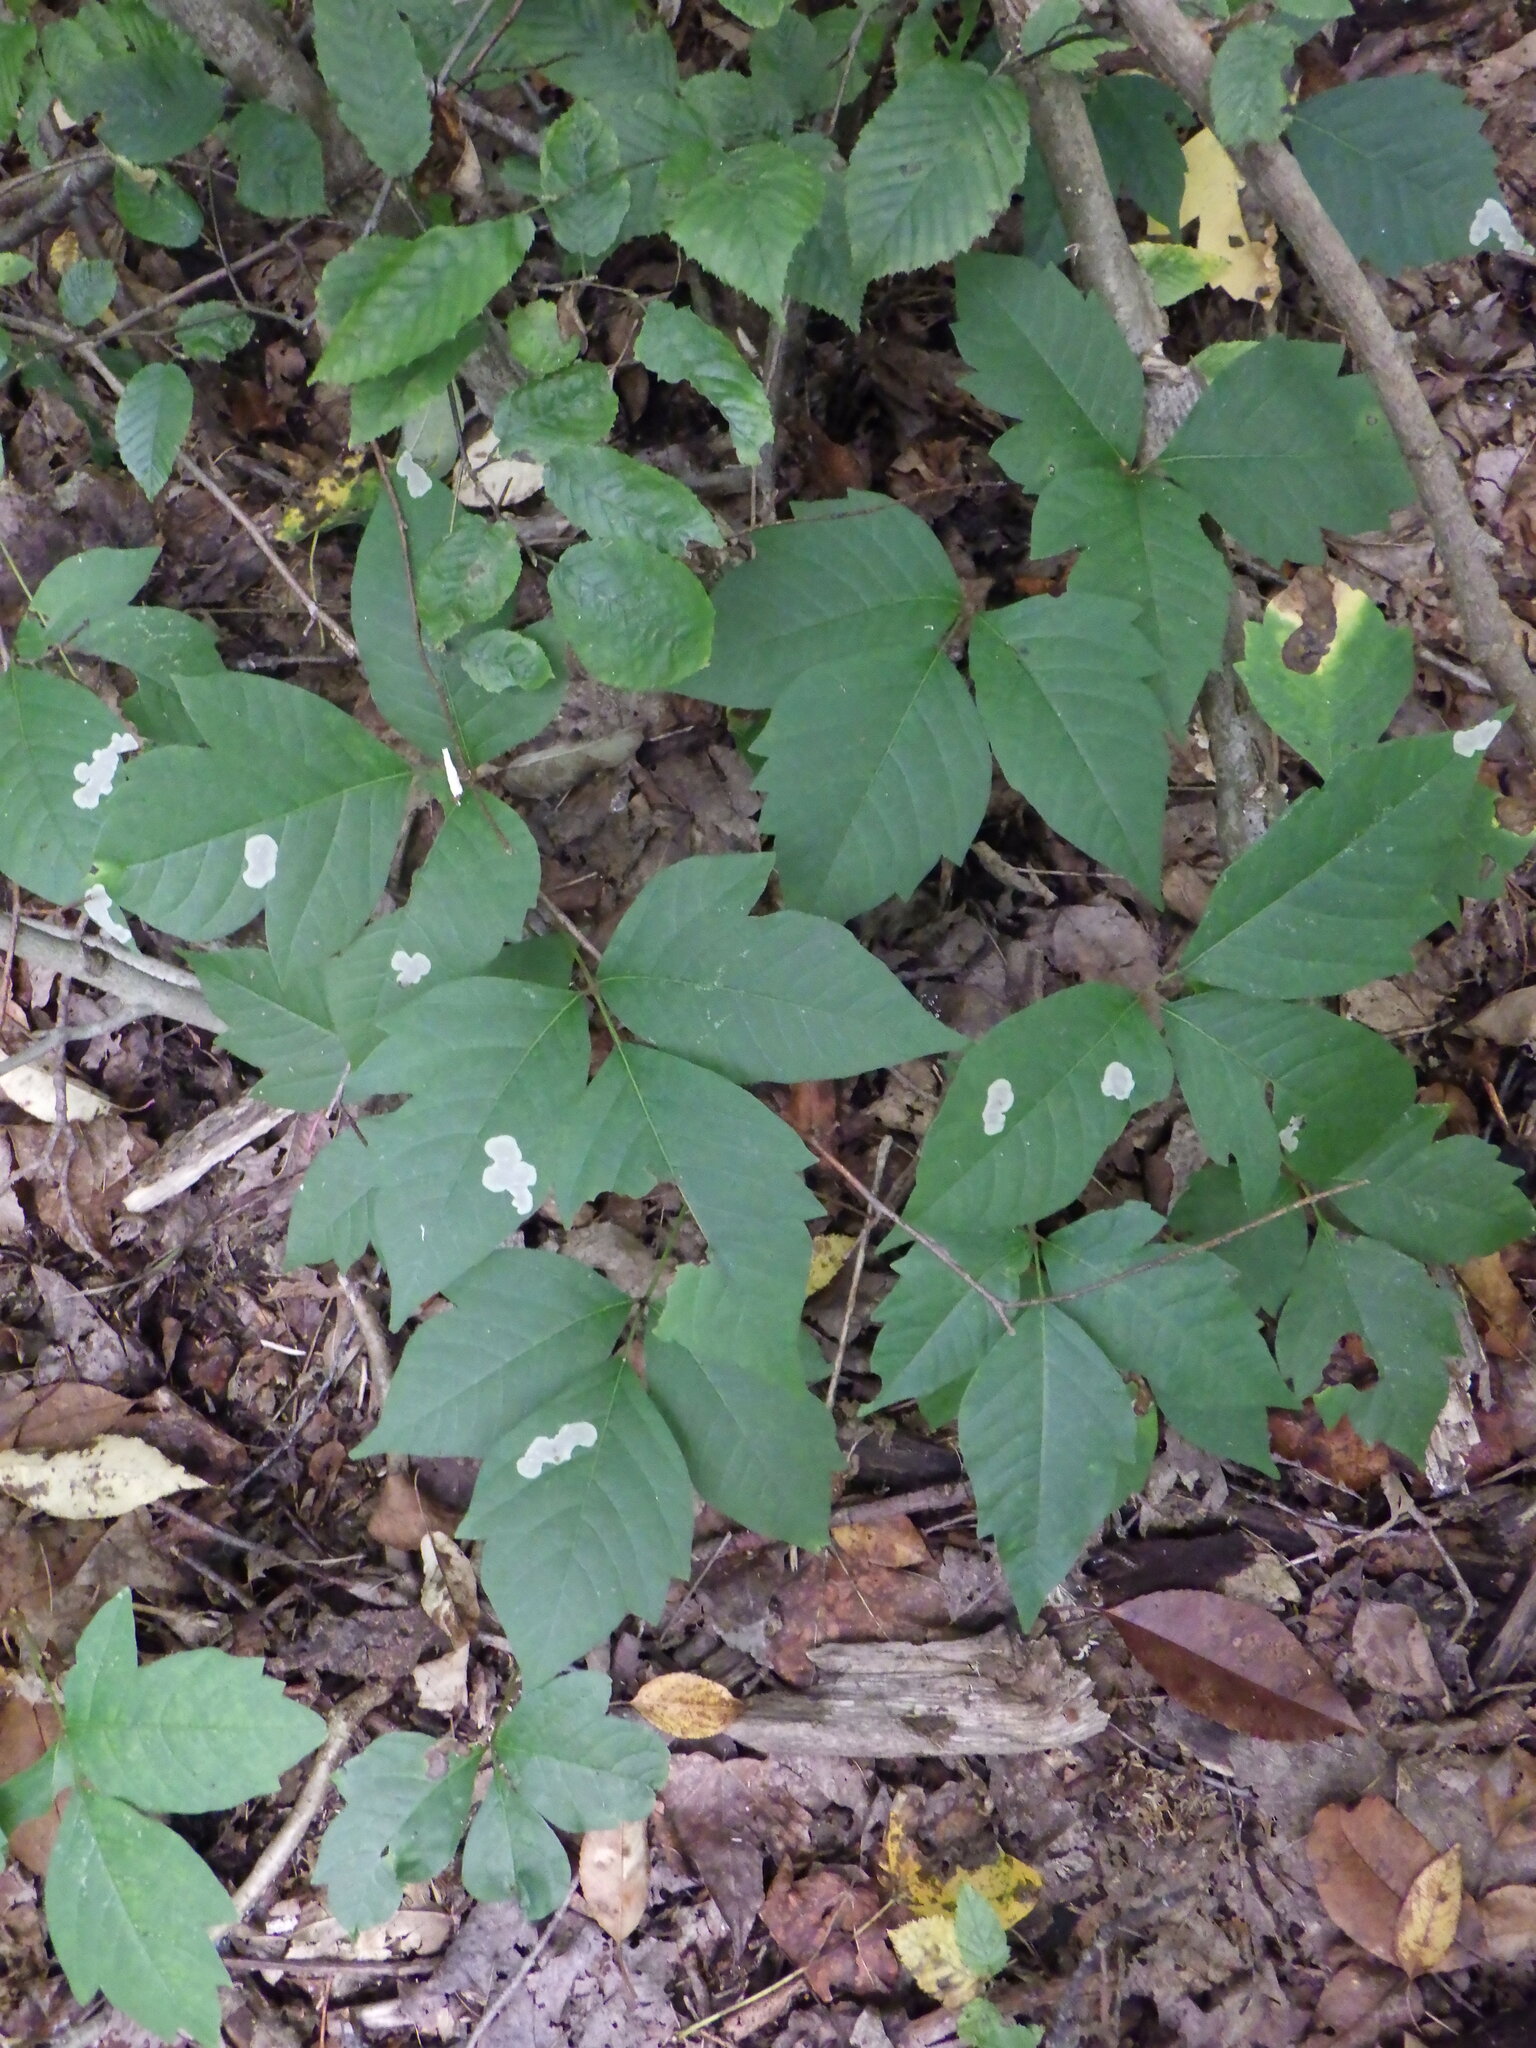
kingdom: Animalia
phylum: Arthropoda
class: Insecta
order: Lepidoptera
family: Gracillariidae
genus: Cameraria
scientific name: Cameraria guttifinitella
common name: Poison ivy leaf-miner moth
